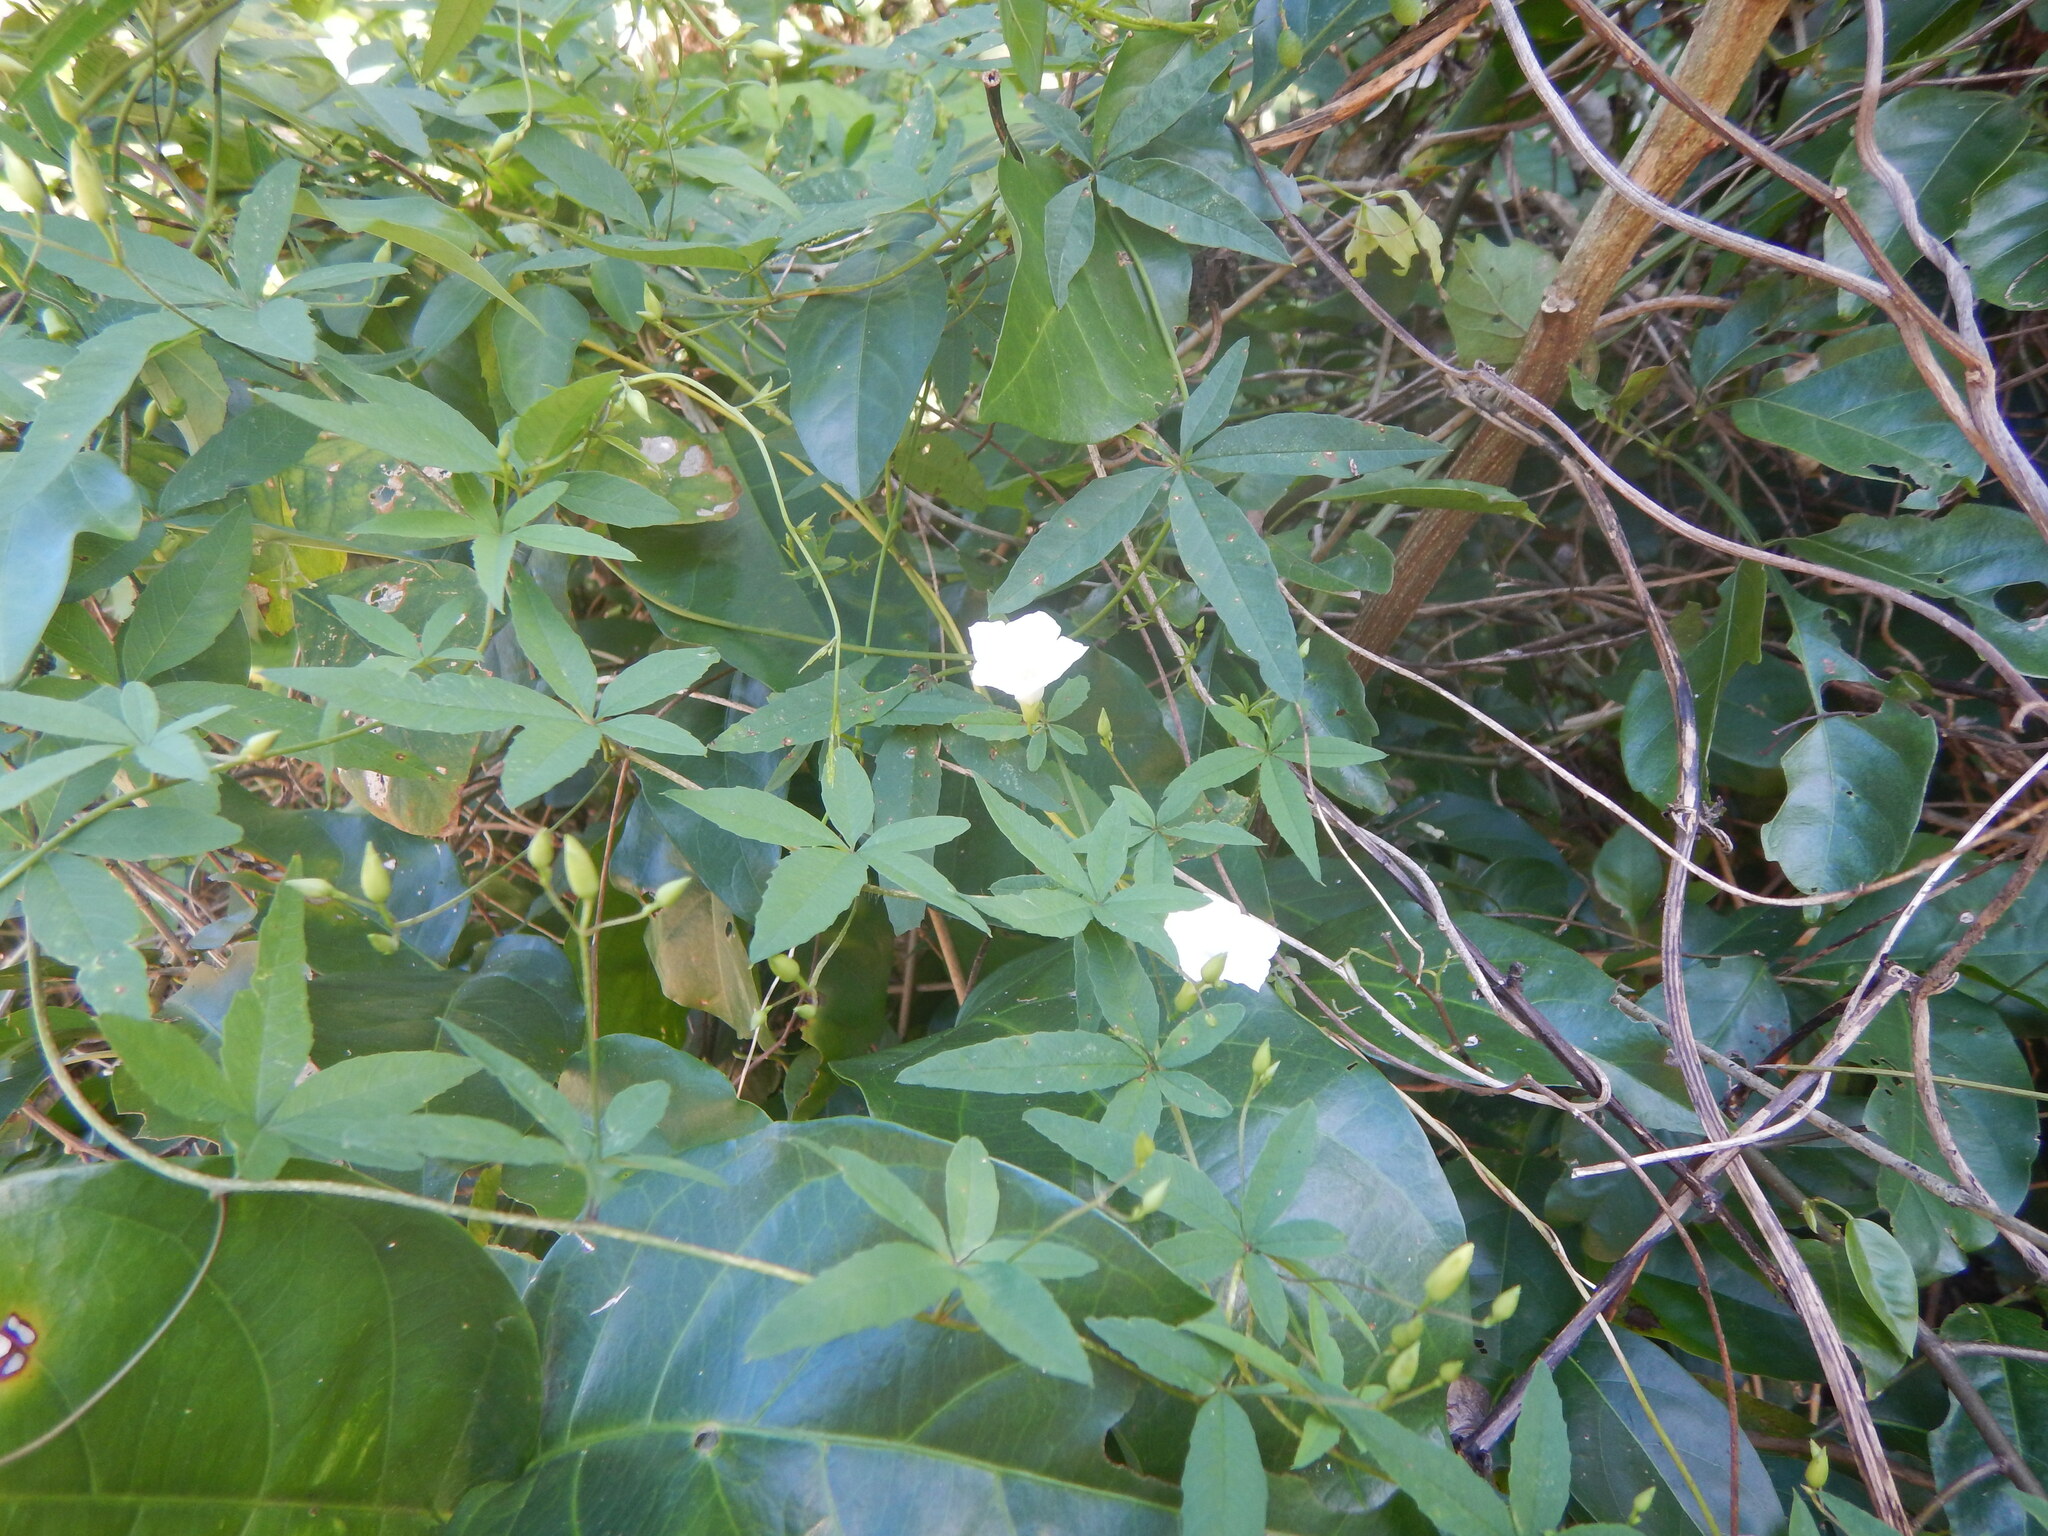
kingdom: Plantae
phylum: Tracheophyta
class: Magnoliopsida
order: Solanales
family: Convolvulaceae
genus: Distimake
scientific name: Distimake quinquefolius
